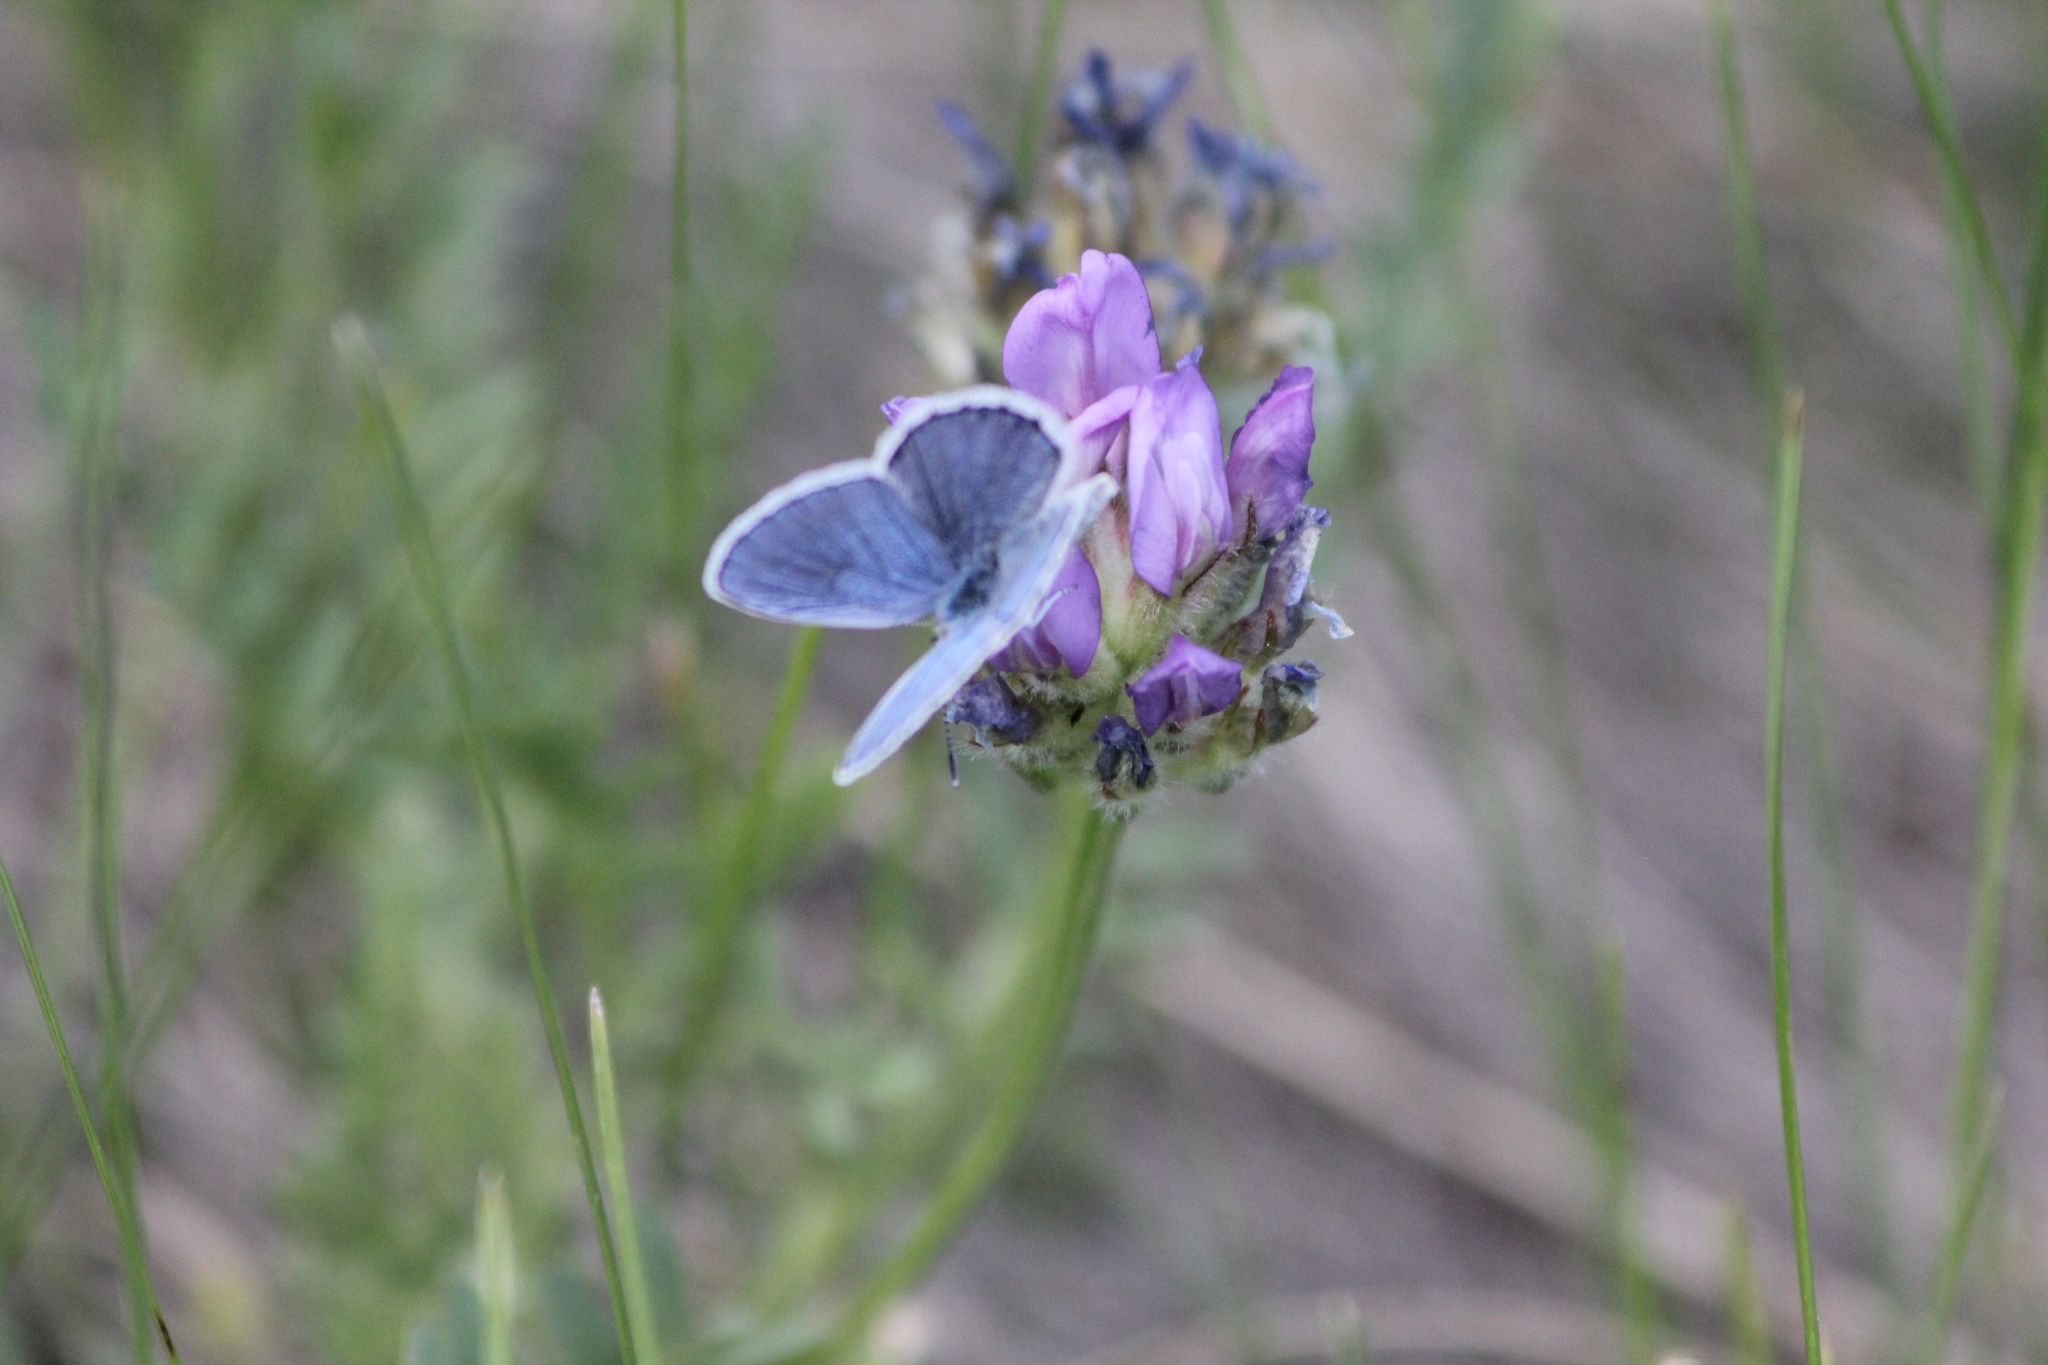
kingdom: Animalia
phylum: Arthropoda
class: Insecta
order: Lepidoptera
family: Lycaenidae
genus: Lycaeides
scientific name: Lycaeides melissa
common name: Melissa blue
